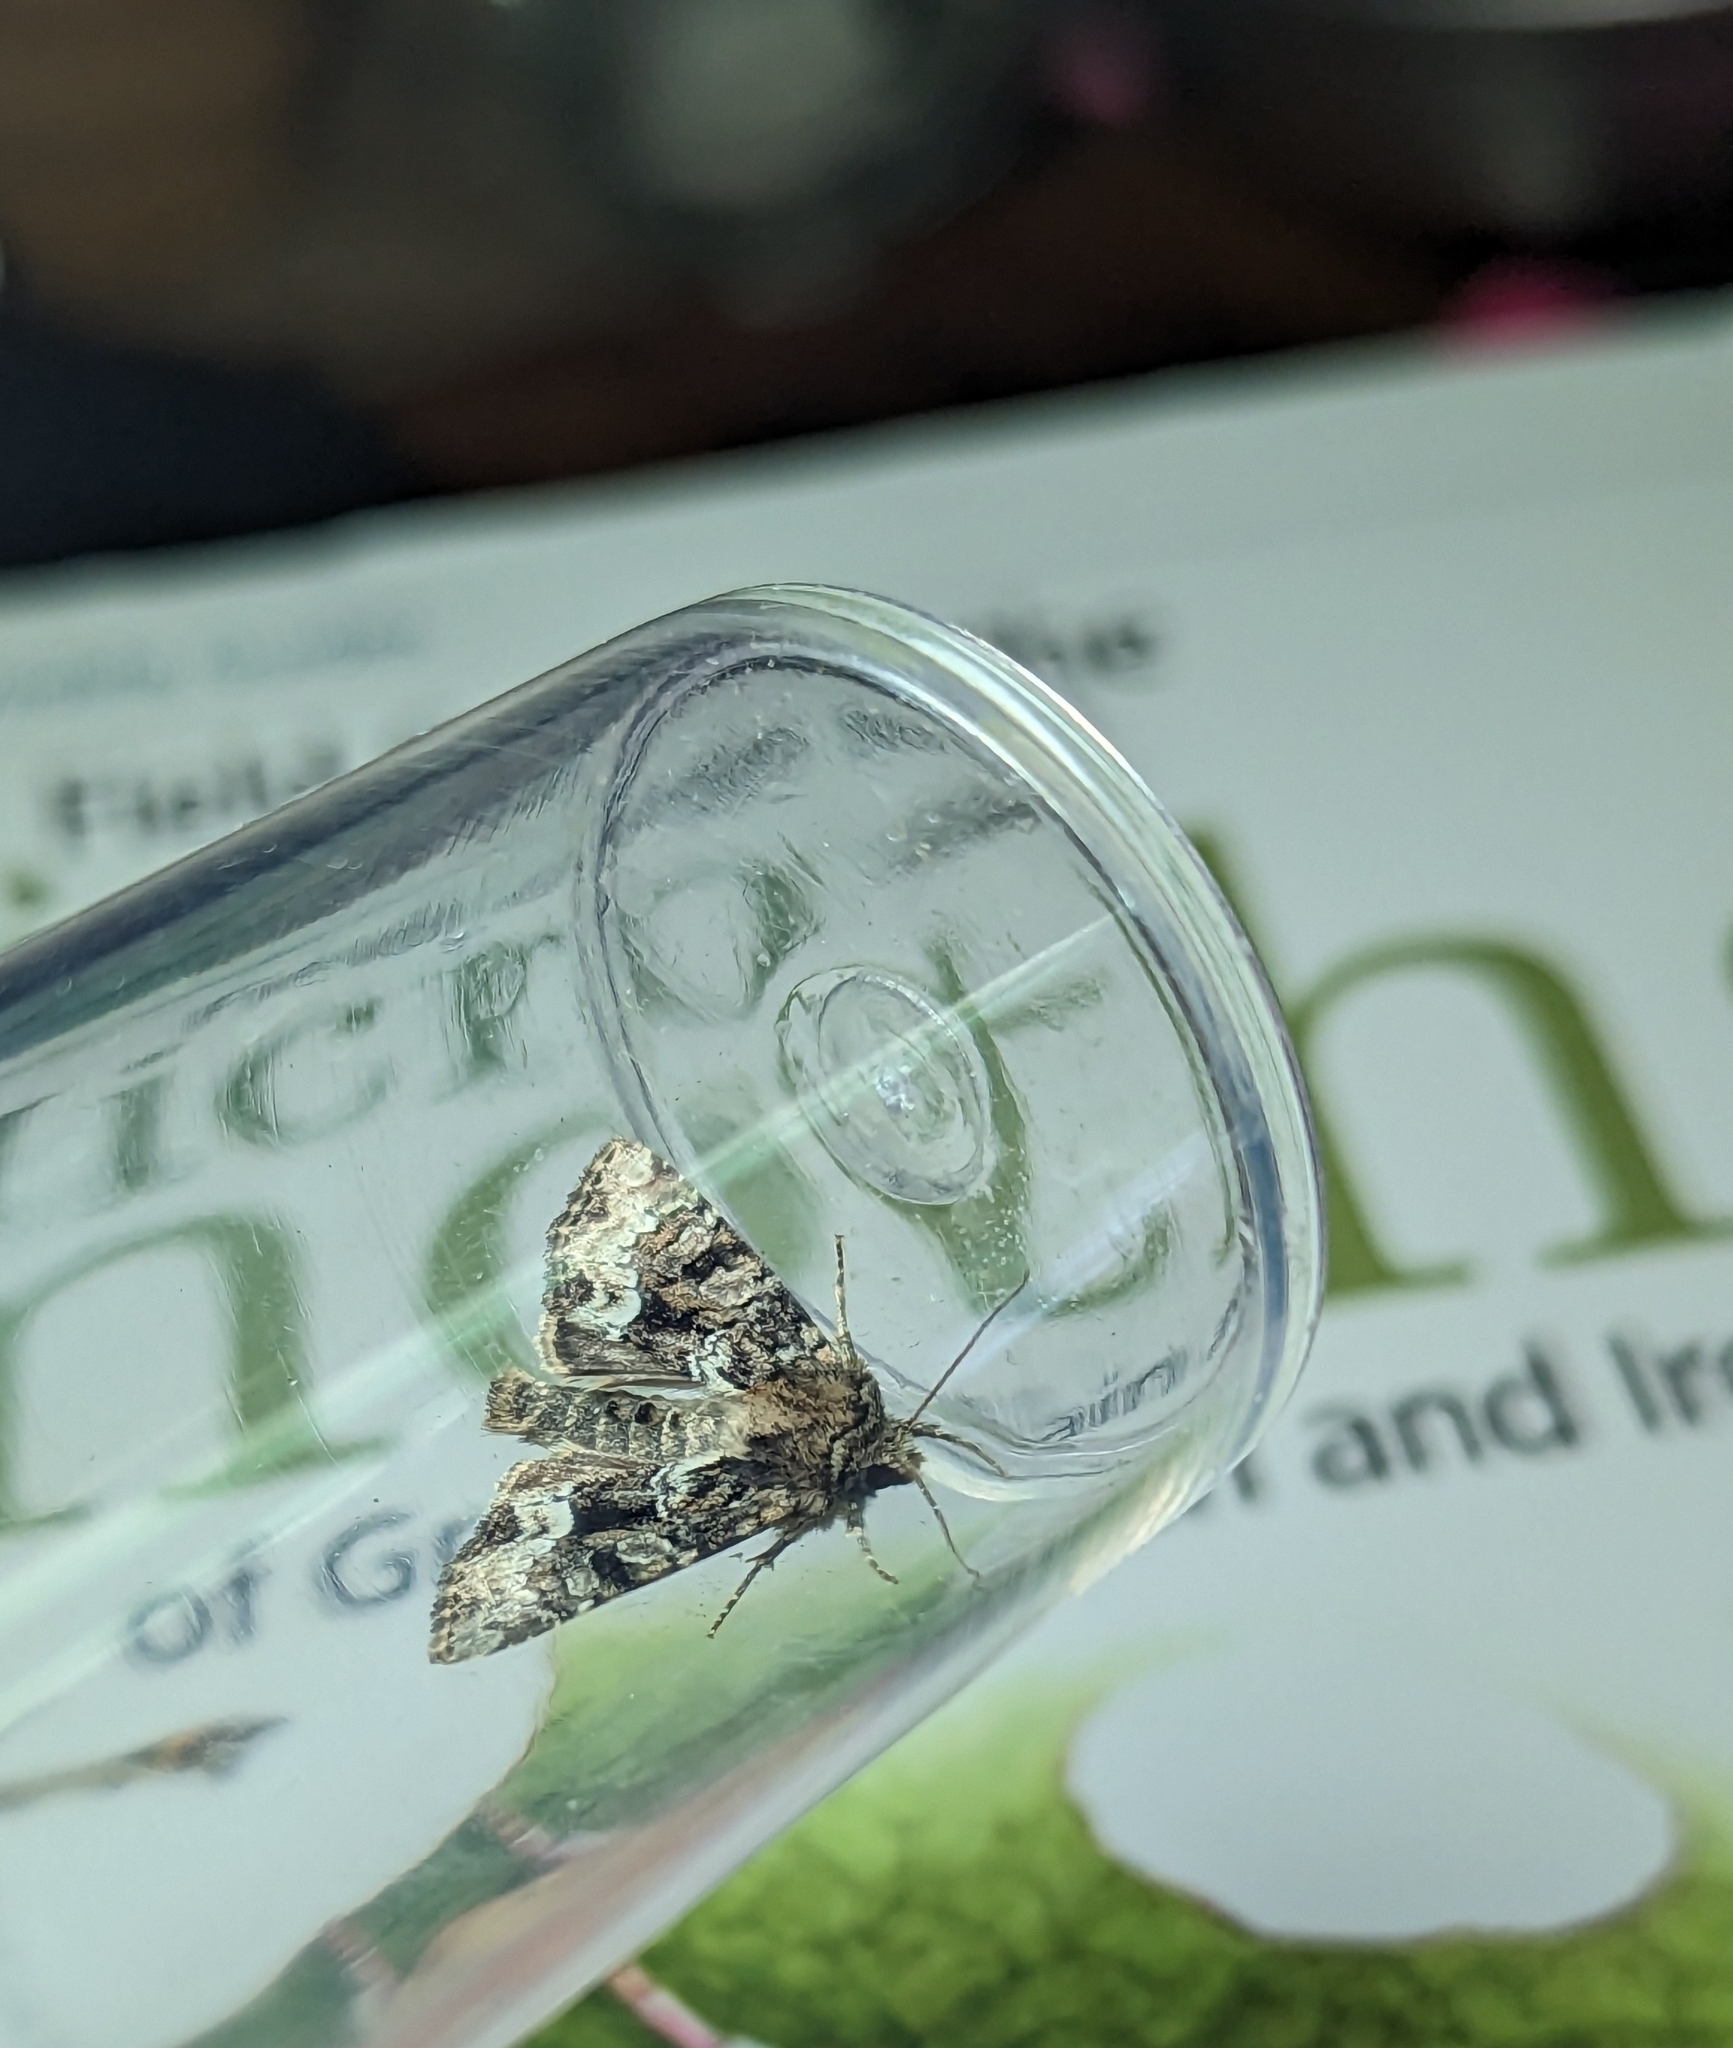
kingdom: Animalia
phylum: Arthropoda
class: Insecta
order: Lepidoptera
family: Noctuidae
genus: Oligia
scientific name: Oligia strigilis
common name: Marbled minor
